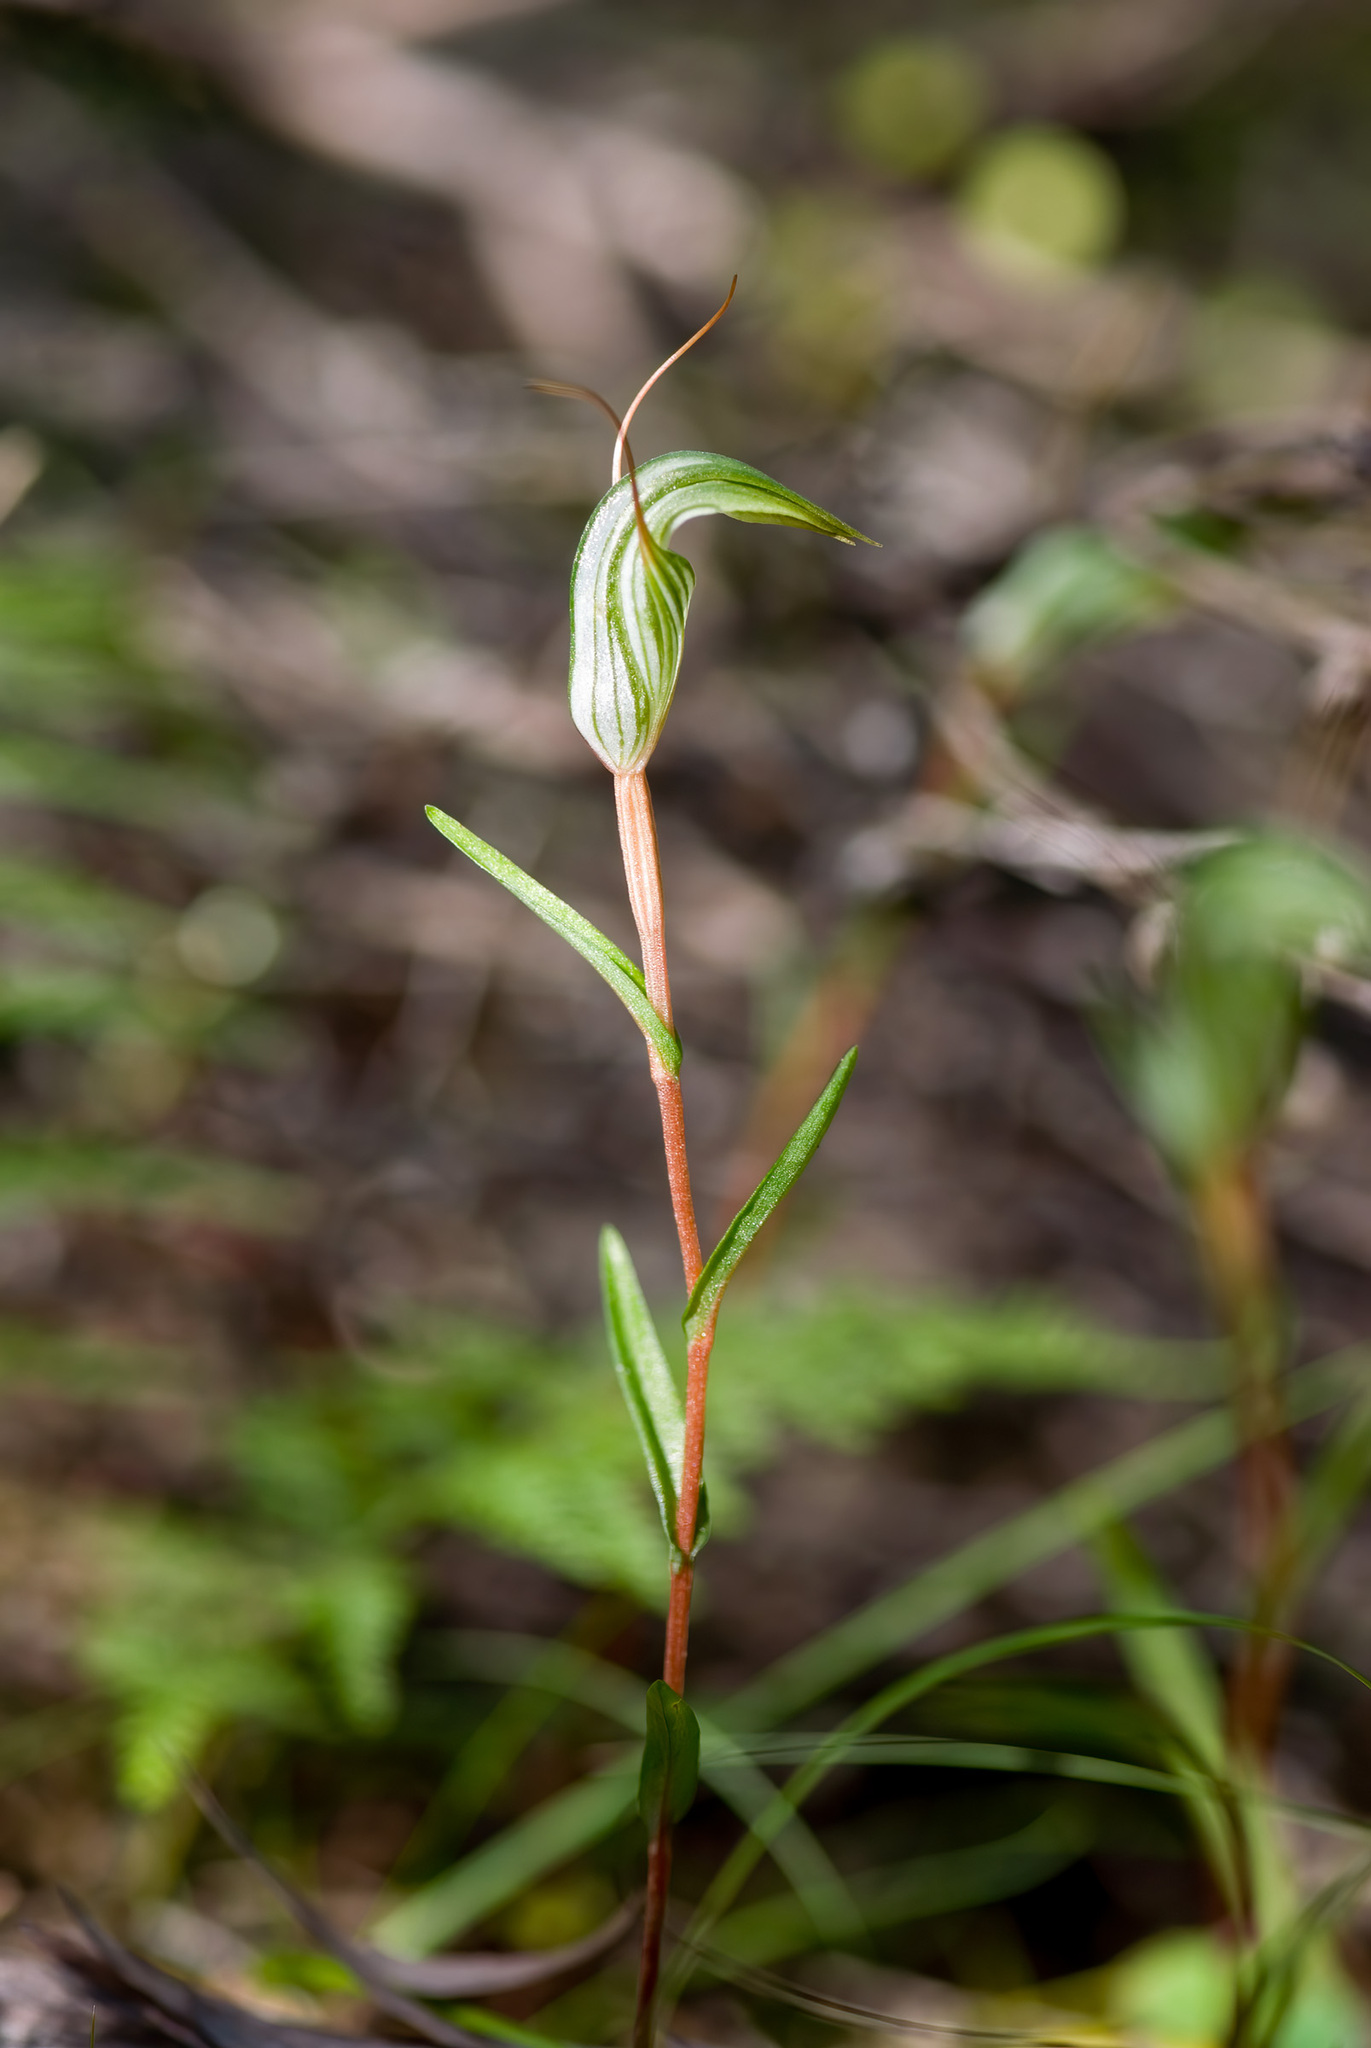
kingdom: Plantae
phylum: Tracheophyta
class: Liliopsida
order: Asparagales
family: Orchidaceae
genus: Pterostylis
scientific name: Pterostylis alobula
